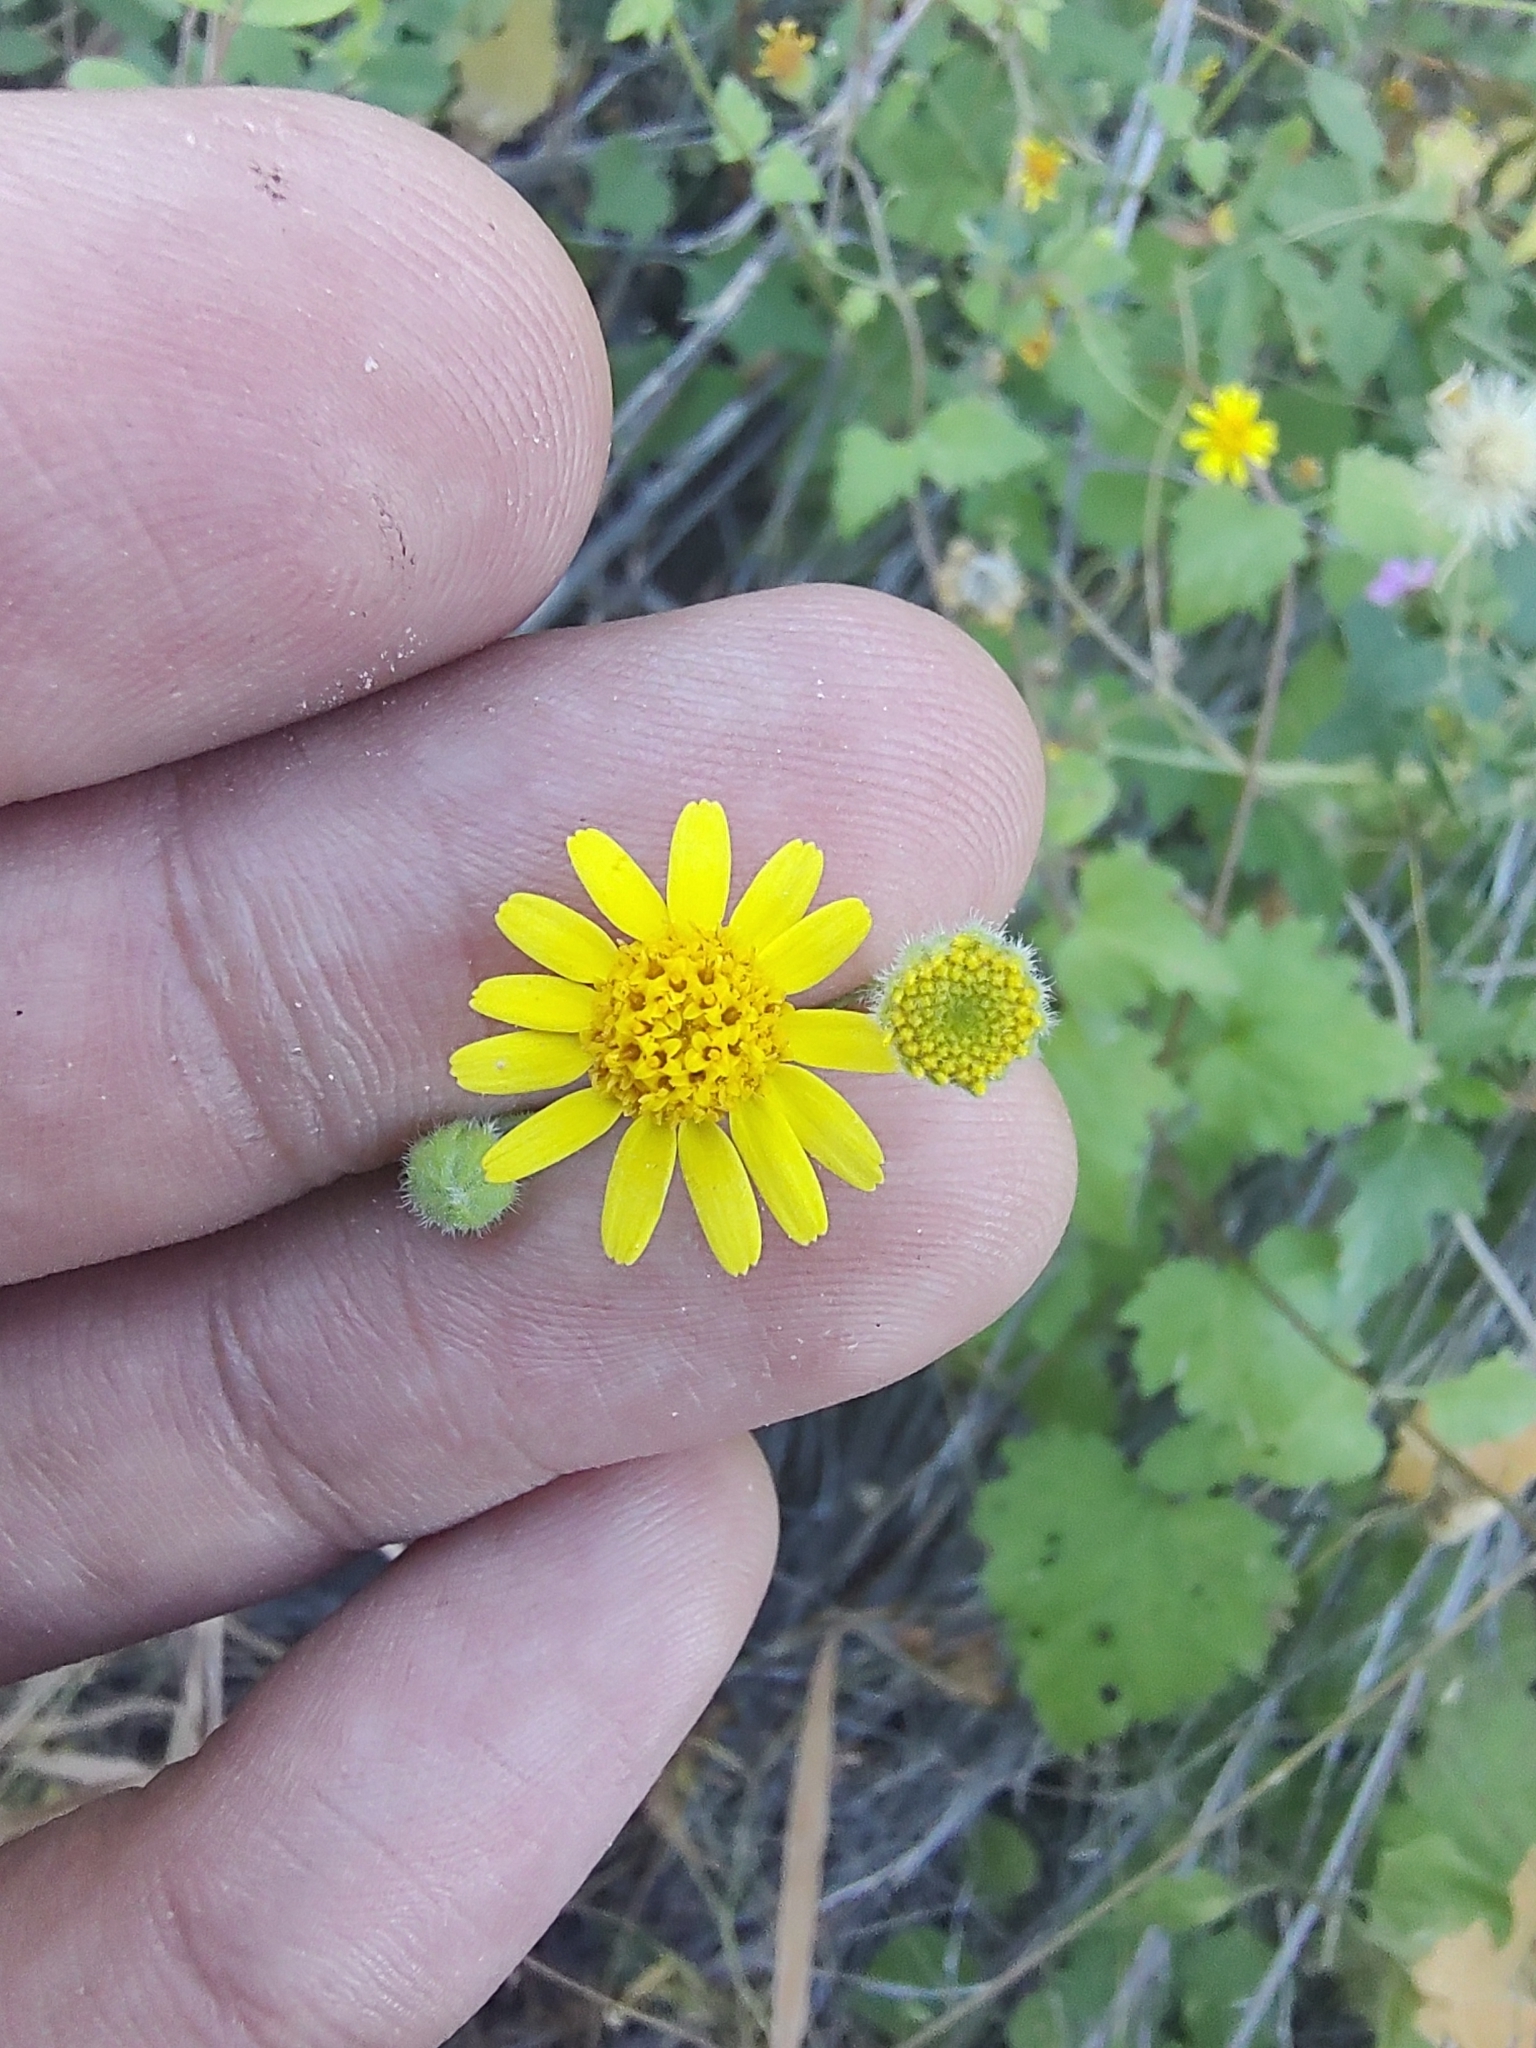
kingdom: Plantae
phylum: Tracheophyta
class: Magnoliopsida
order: Asterales
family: Asteraceae
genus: Perityle
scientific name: Perityle cuneata
